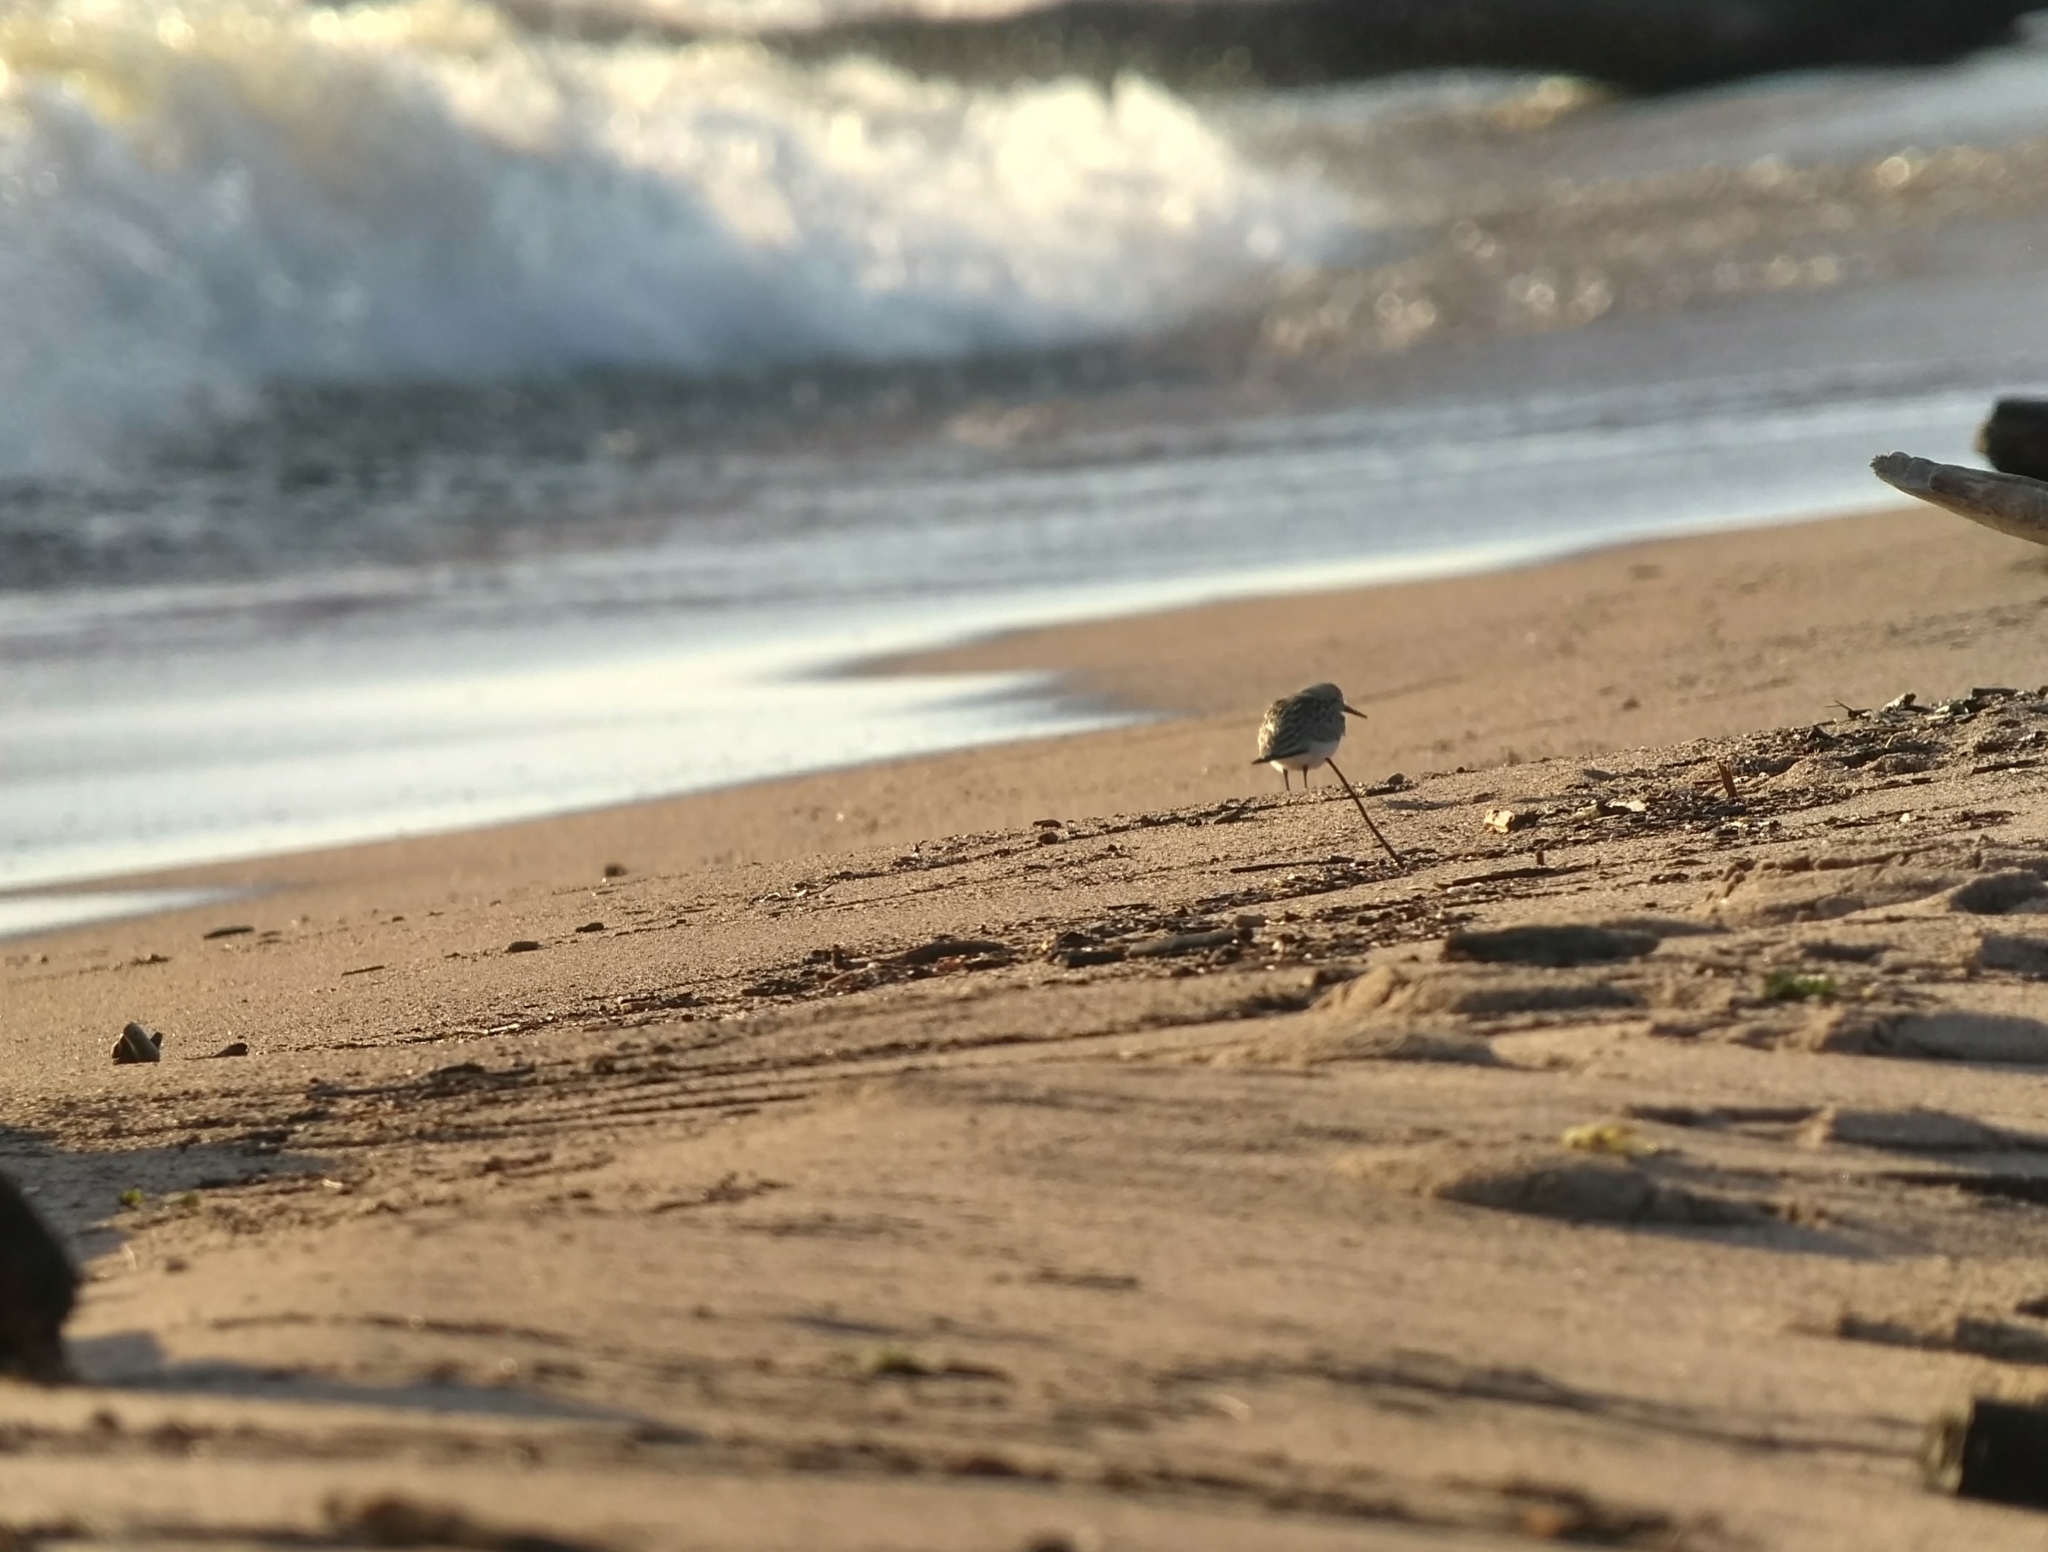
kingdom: Animalia
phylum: Chordata
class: Aves
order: Charadriiformes
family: Scolopacidae
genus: Calidris
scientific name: Calidris canutus
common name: Red knot
